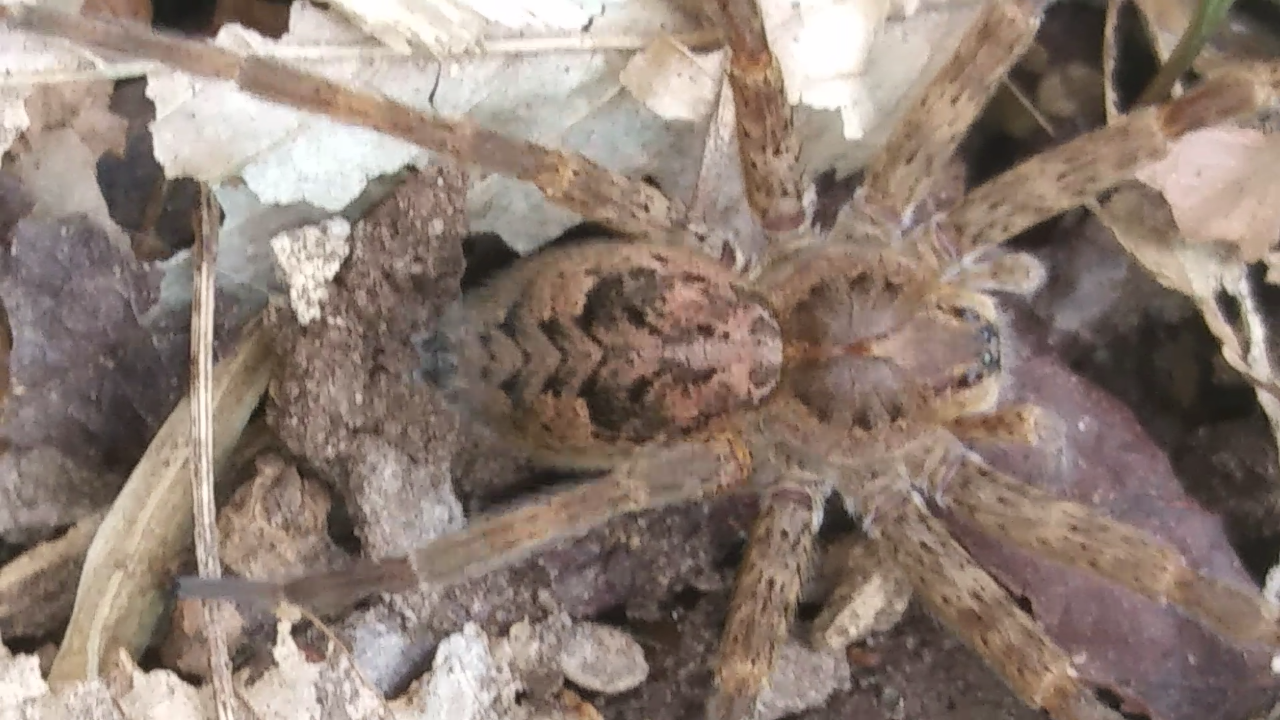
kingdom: Animalia
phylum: Arthropoda
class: Arachnida
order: Araneae
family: Pisauridae
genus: Dolomedes
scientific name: Dolomedes tenebrosus
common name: Dark fishing spider
